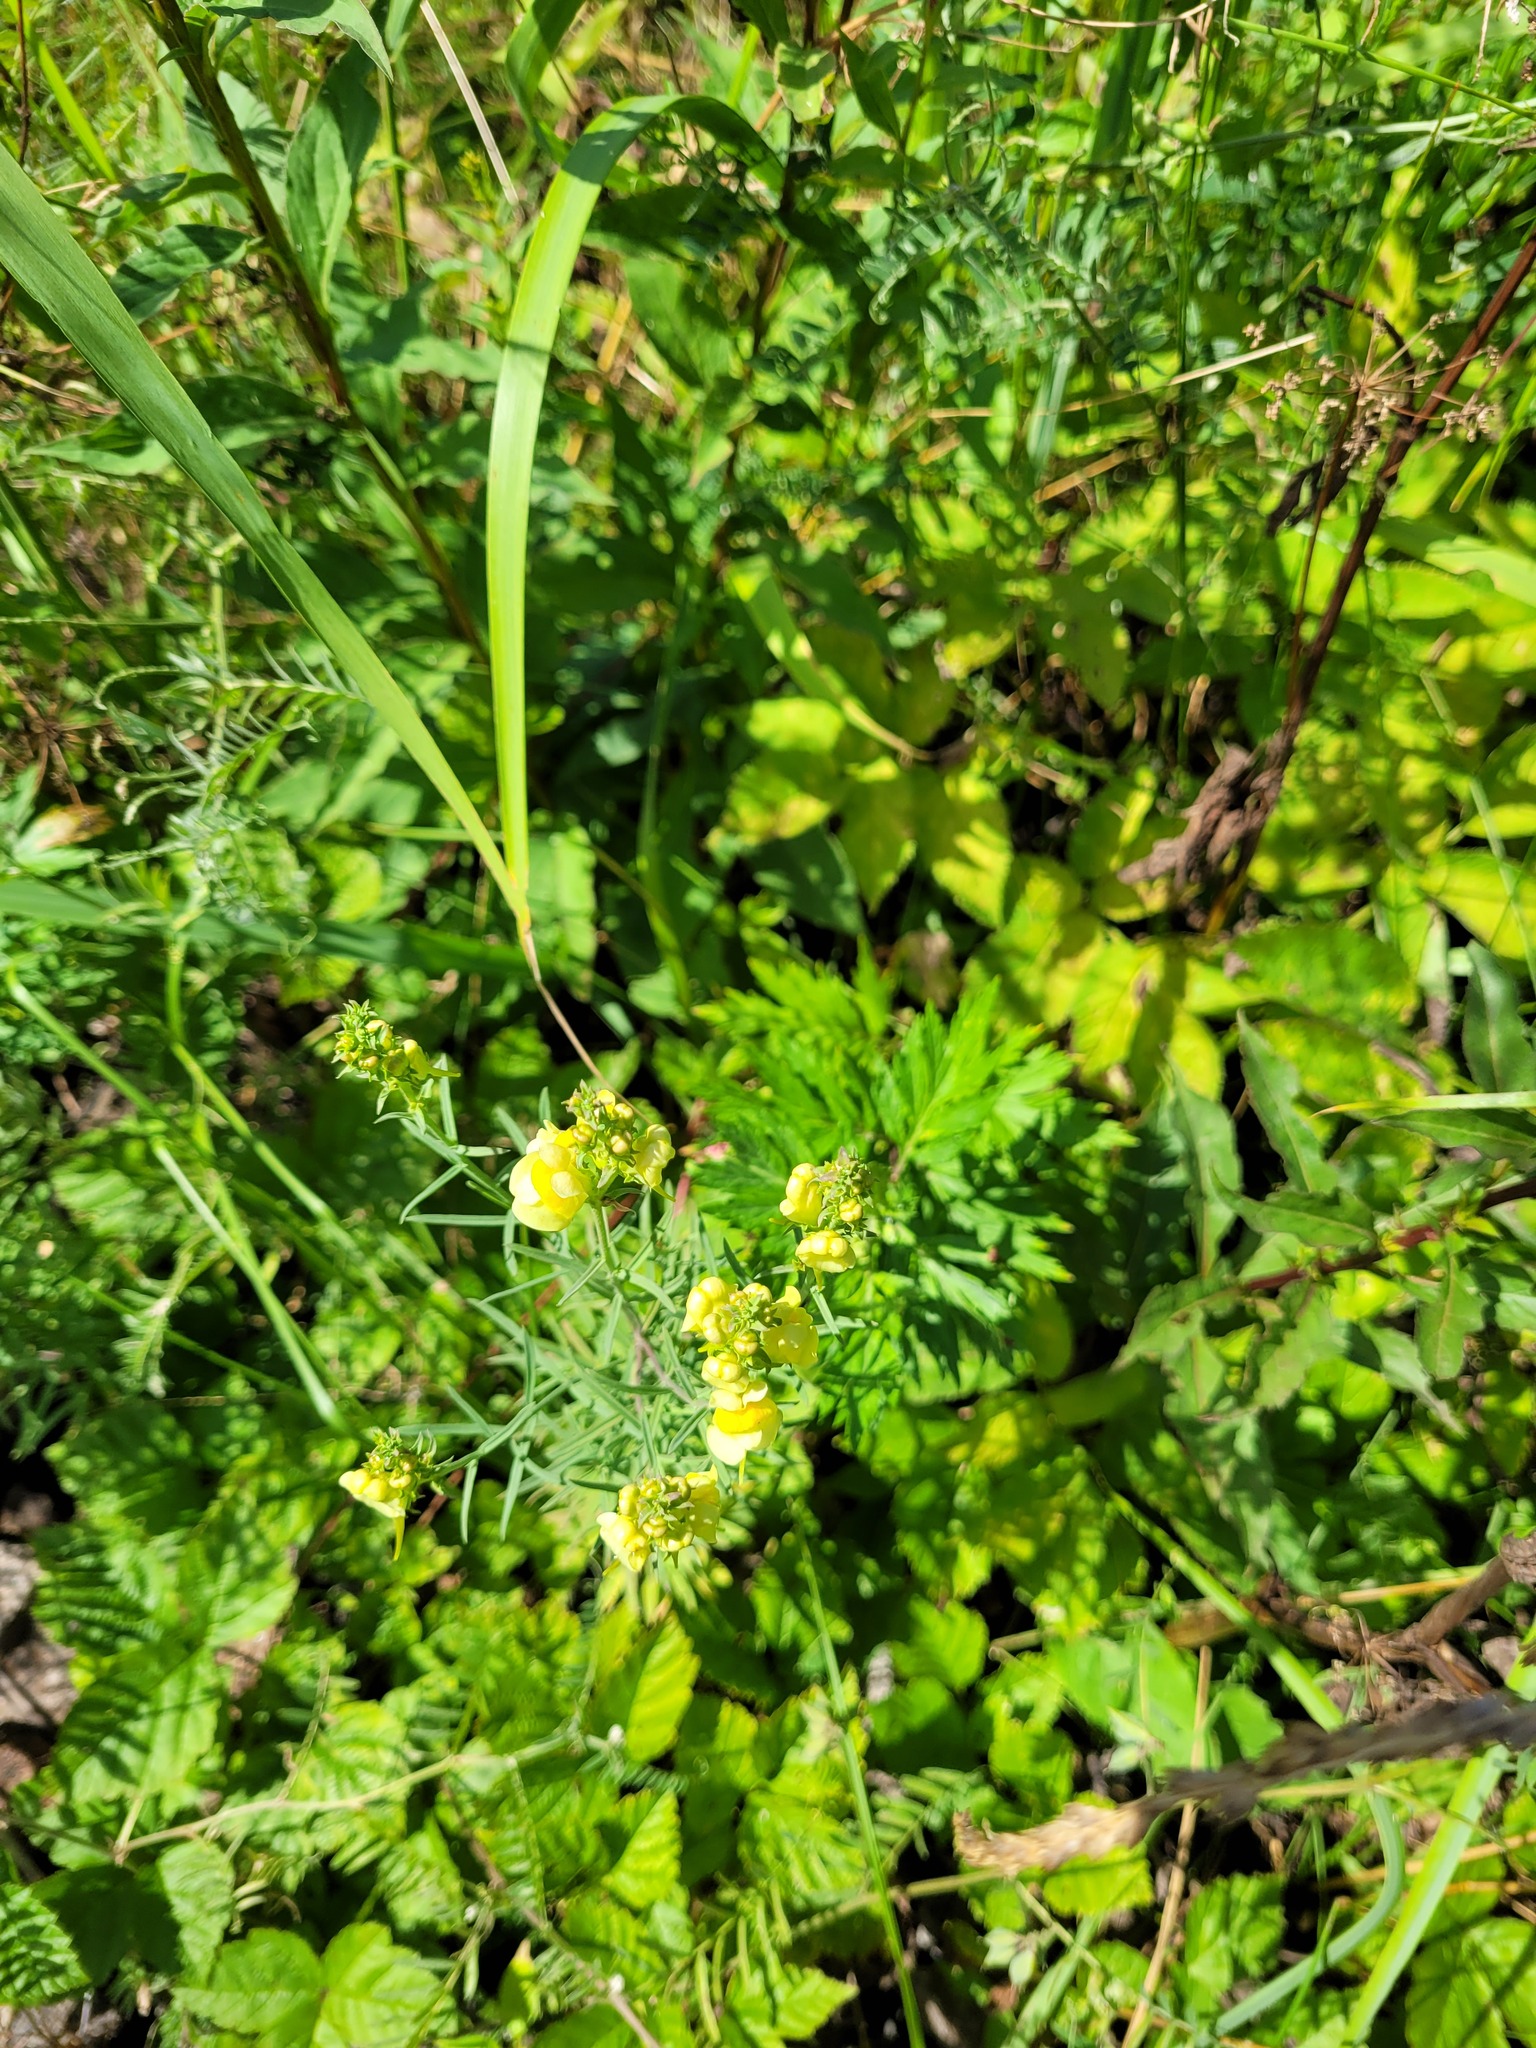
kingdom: Plantae
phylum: Tracheophyta
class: Magnoliopsida
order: Lamiales
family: Plantaginaceae
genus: Linaria
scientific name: Linaria vulgaris
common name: Butter and eggs
